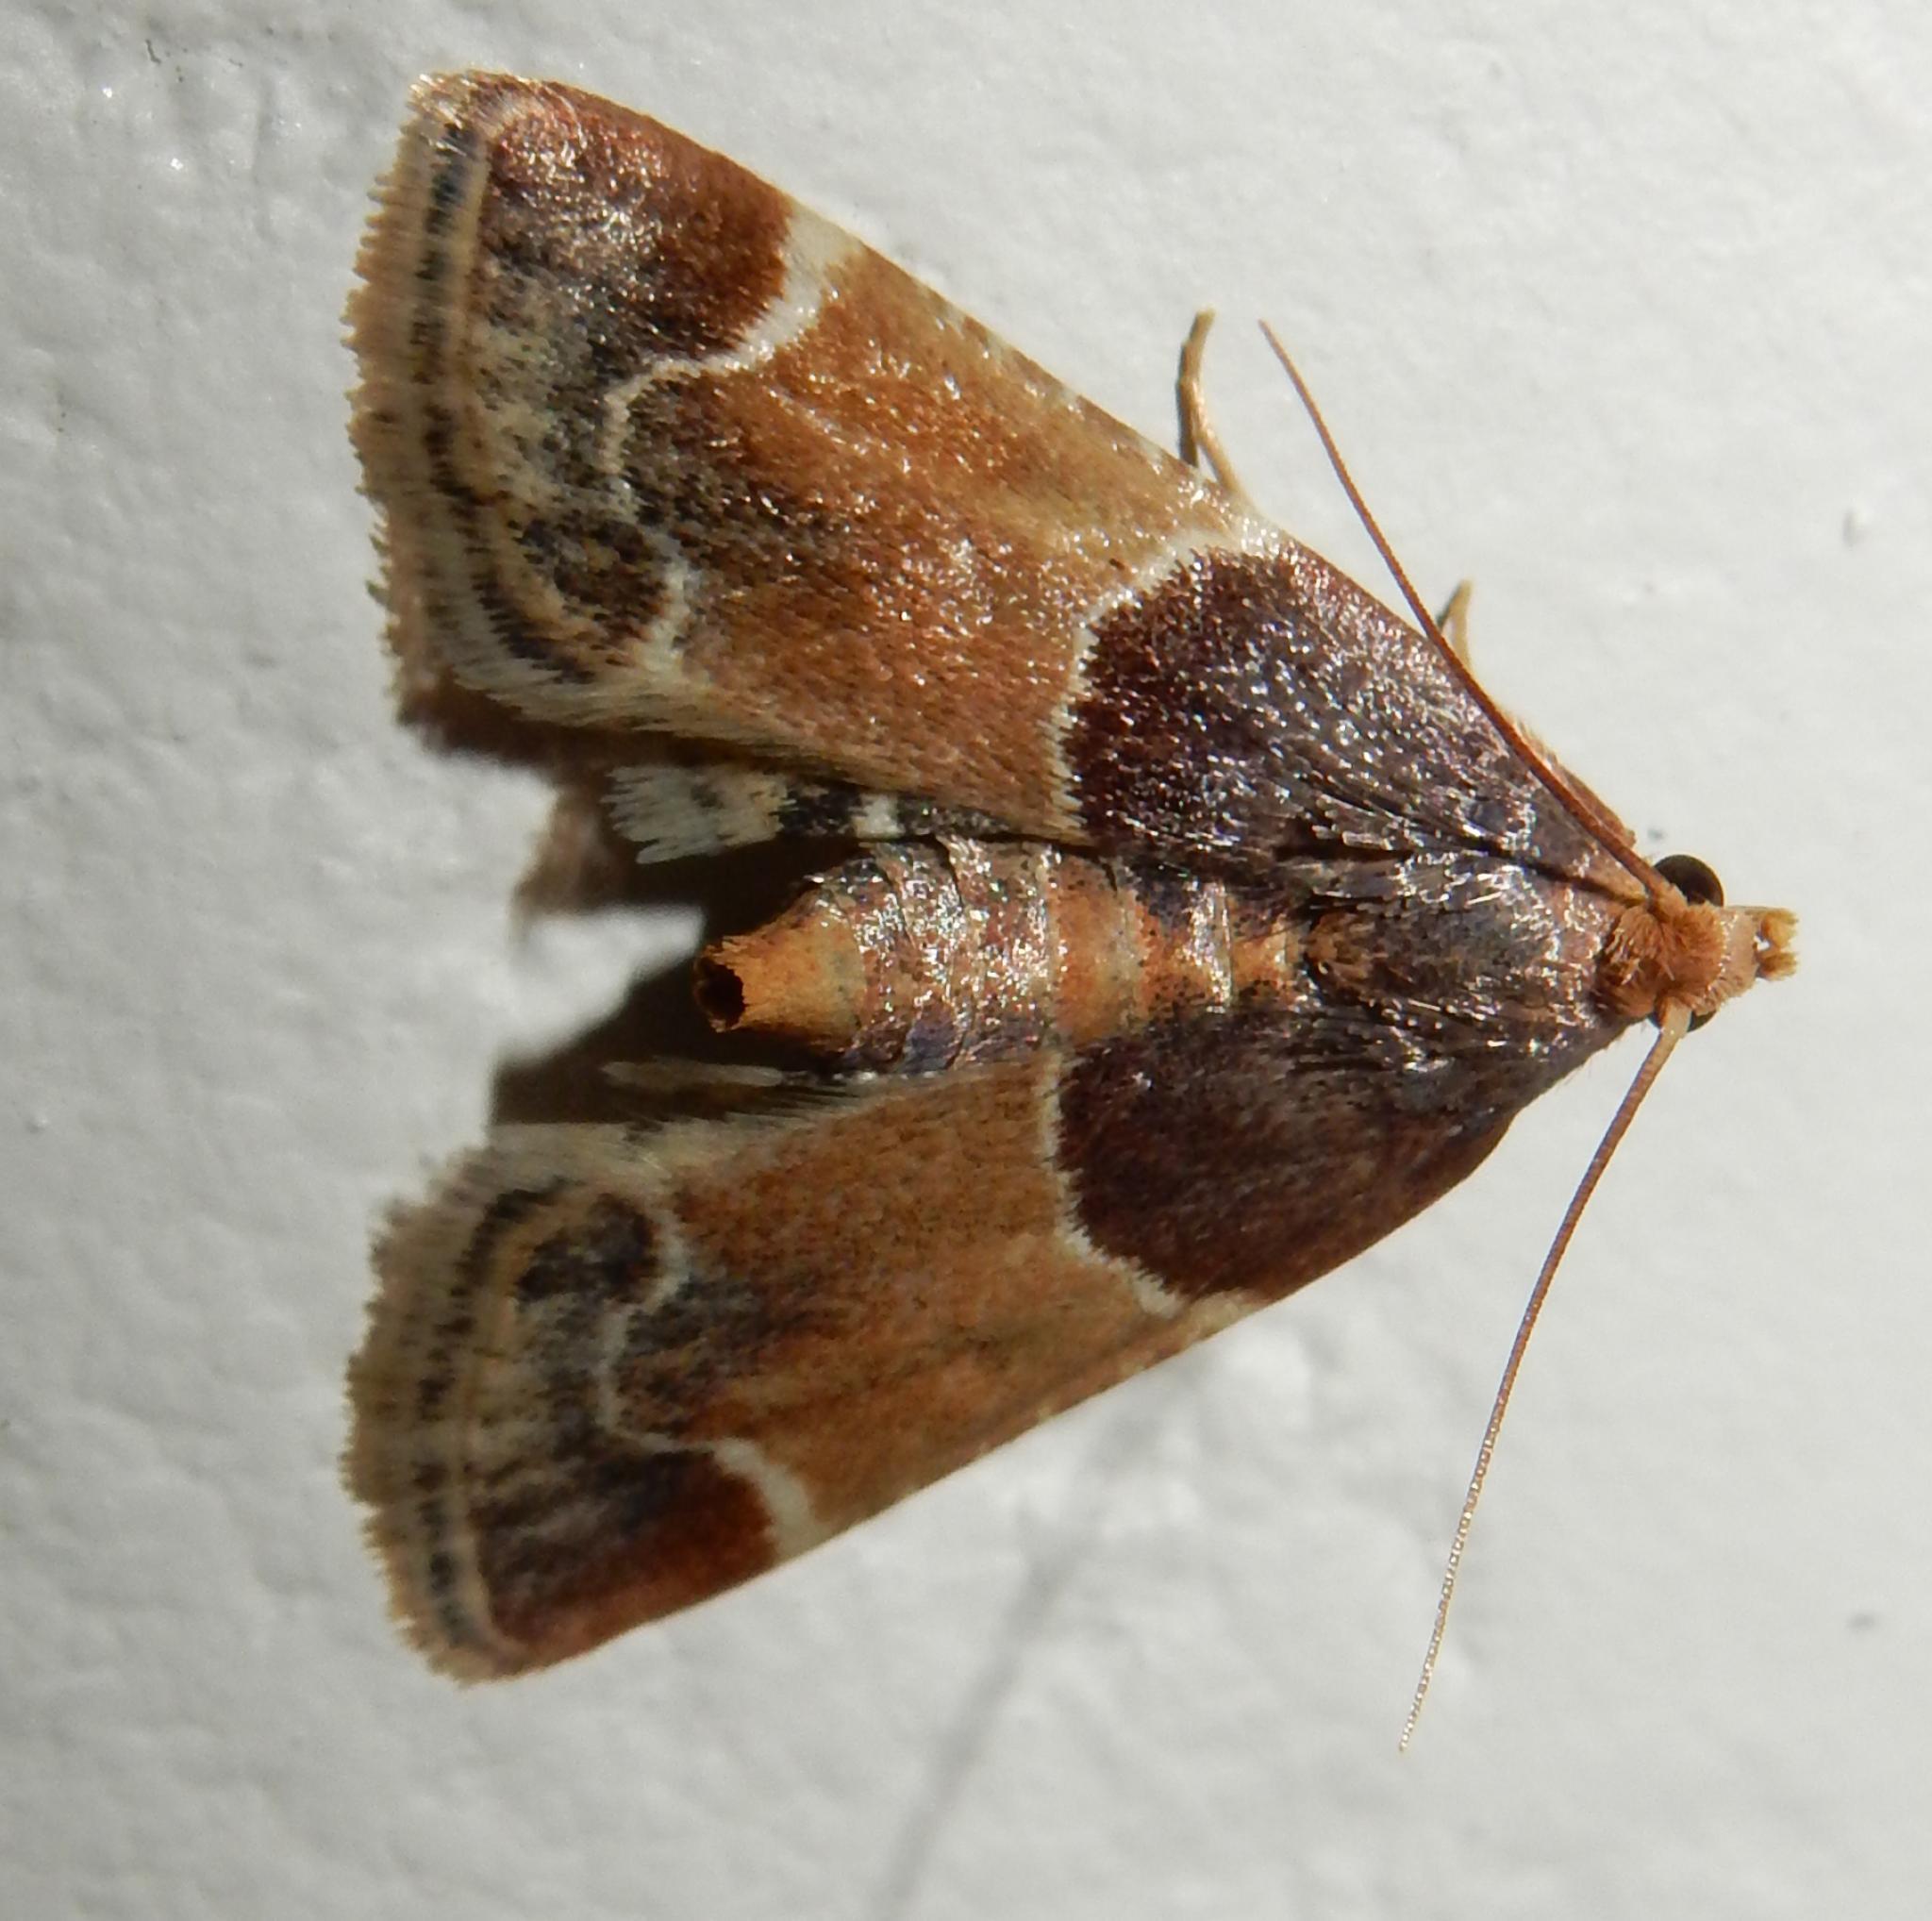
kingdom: Animalia
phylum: Arthropoda
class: Insecta
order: Lepidoptera
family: Pyralidae
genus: Pyralis
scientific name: Pyralis farinalis
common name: Meal moth
